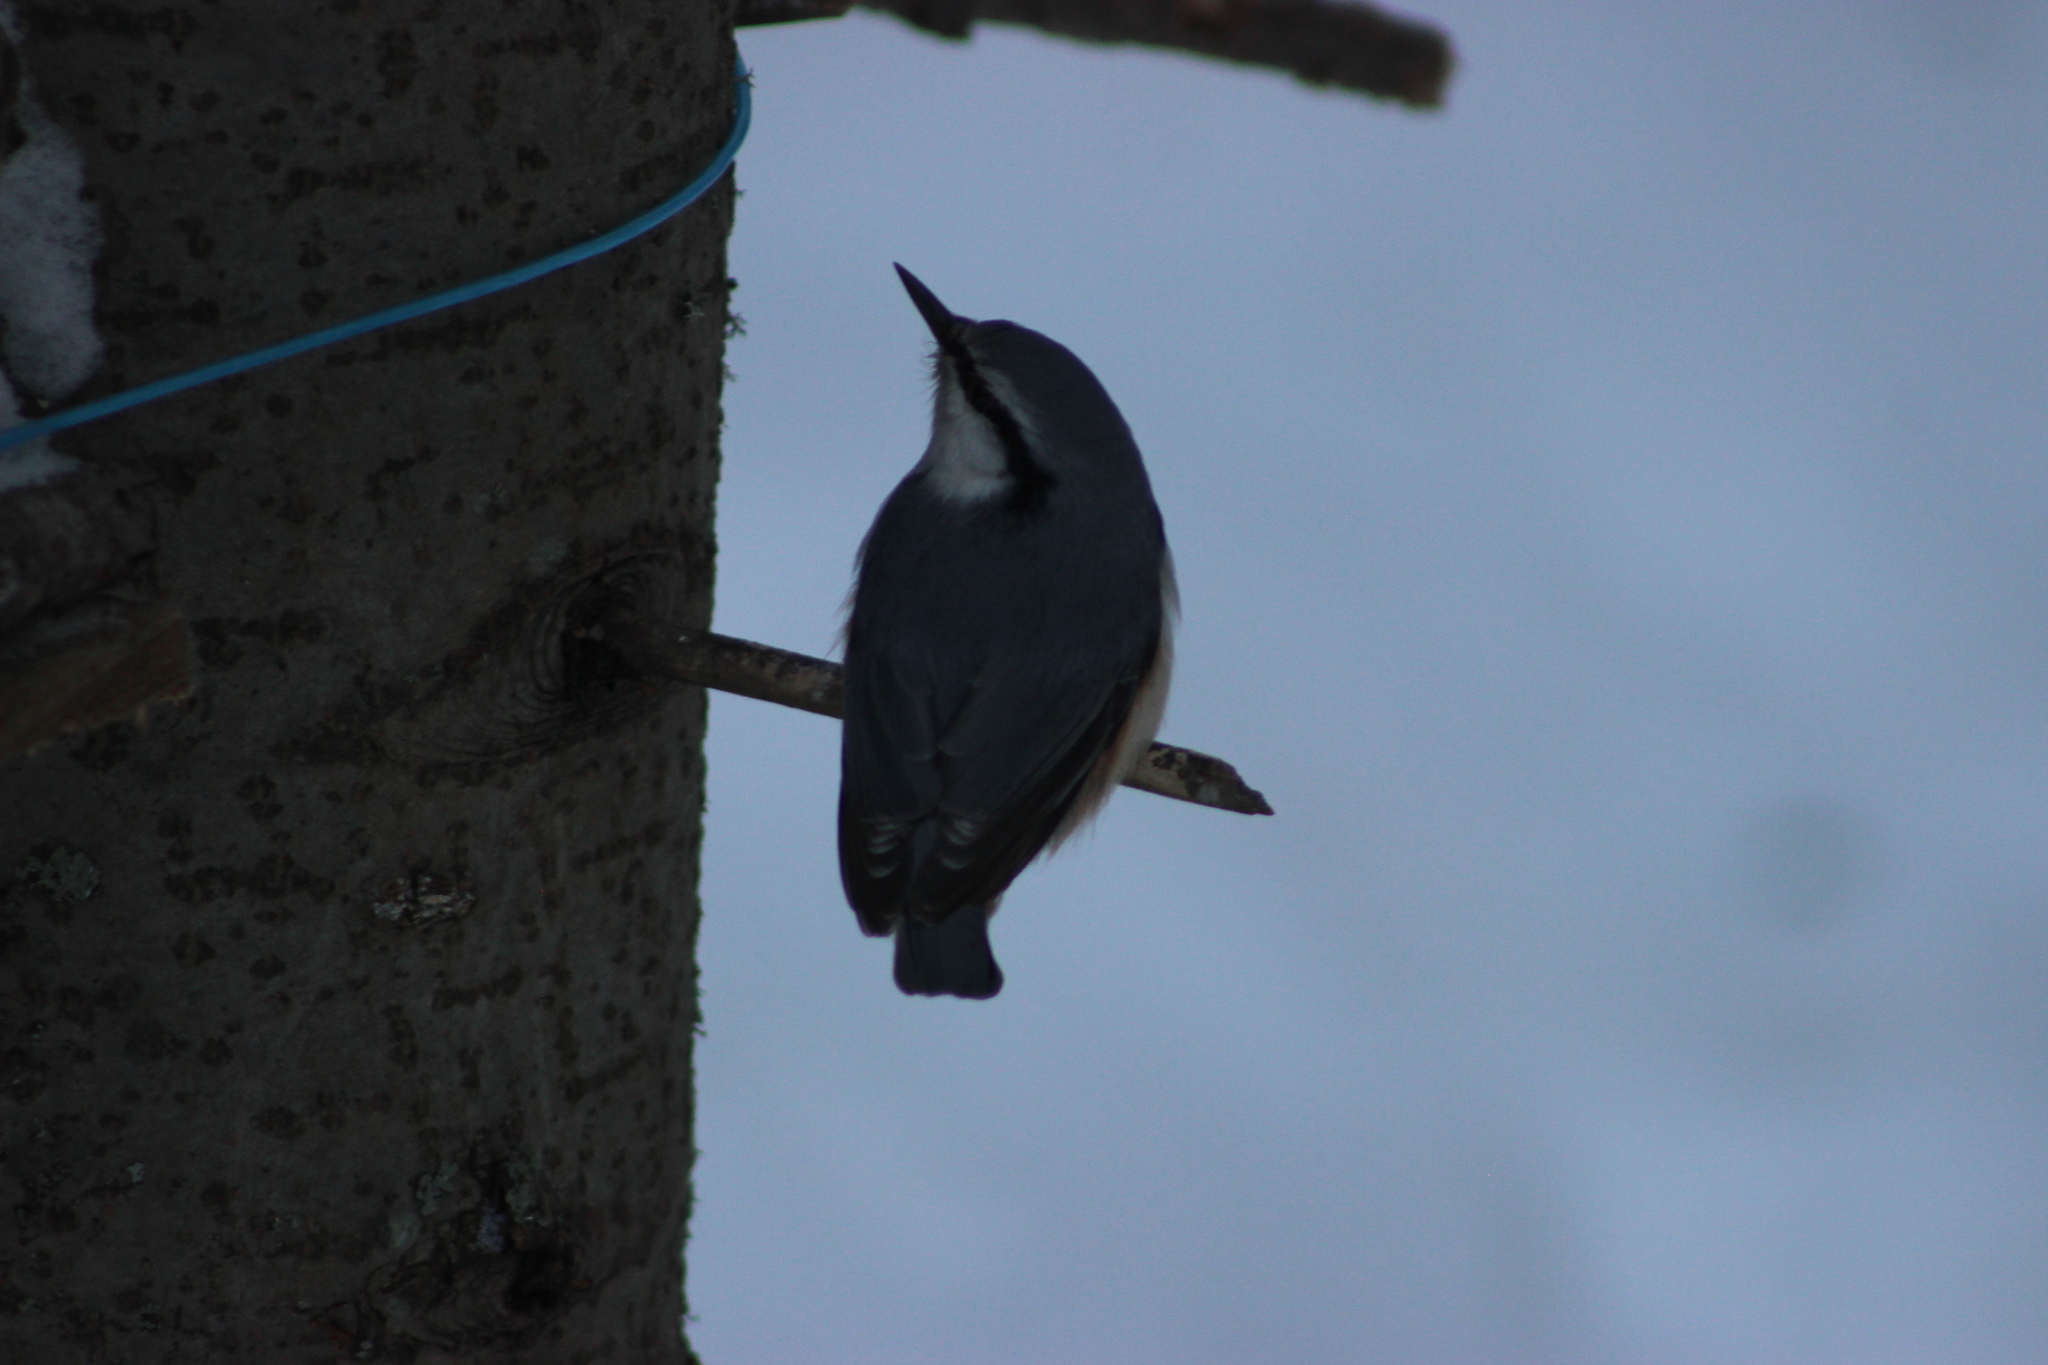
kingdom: Animalia
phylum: Chordata
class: Aves
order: Passeriformes
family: Sittidae
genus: Sitta
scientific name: Sitta europaea
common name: Eurasian nuthatch
